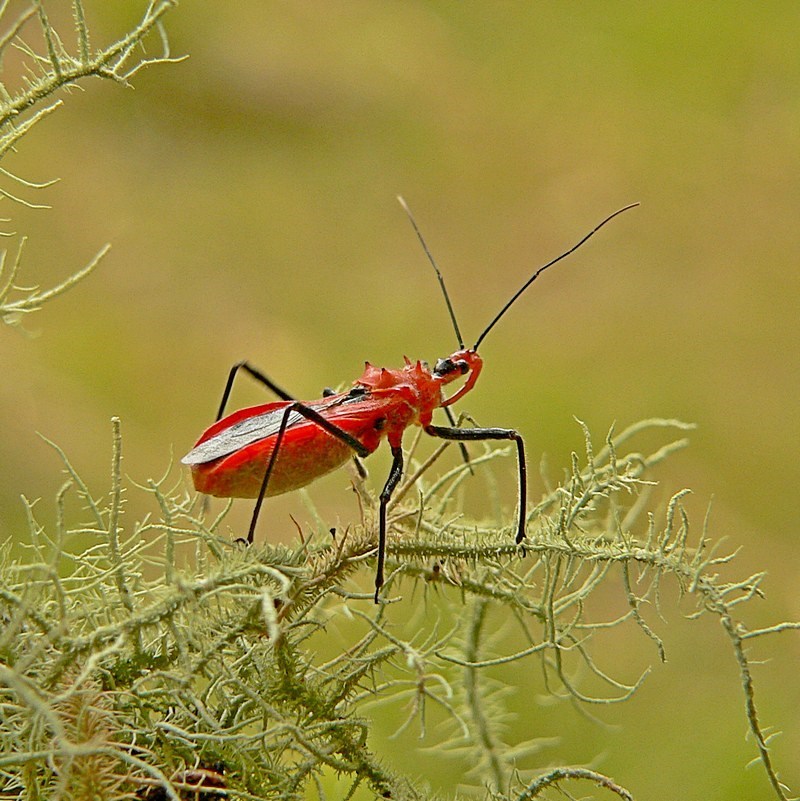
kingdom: Animalia
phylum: Arthropoda
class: Insecta
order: Hemiptera
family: Reduviidae
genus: Gminatus
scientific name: Gminatus australis
